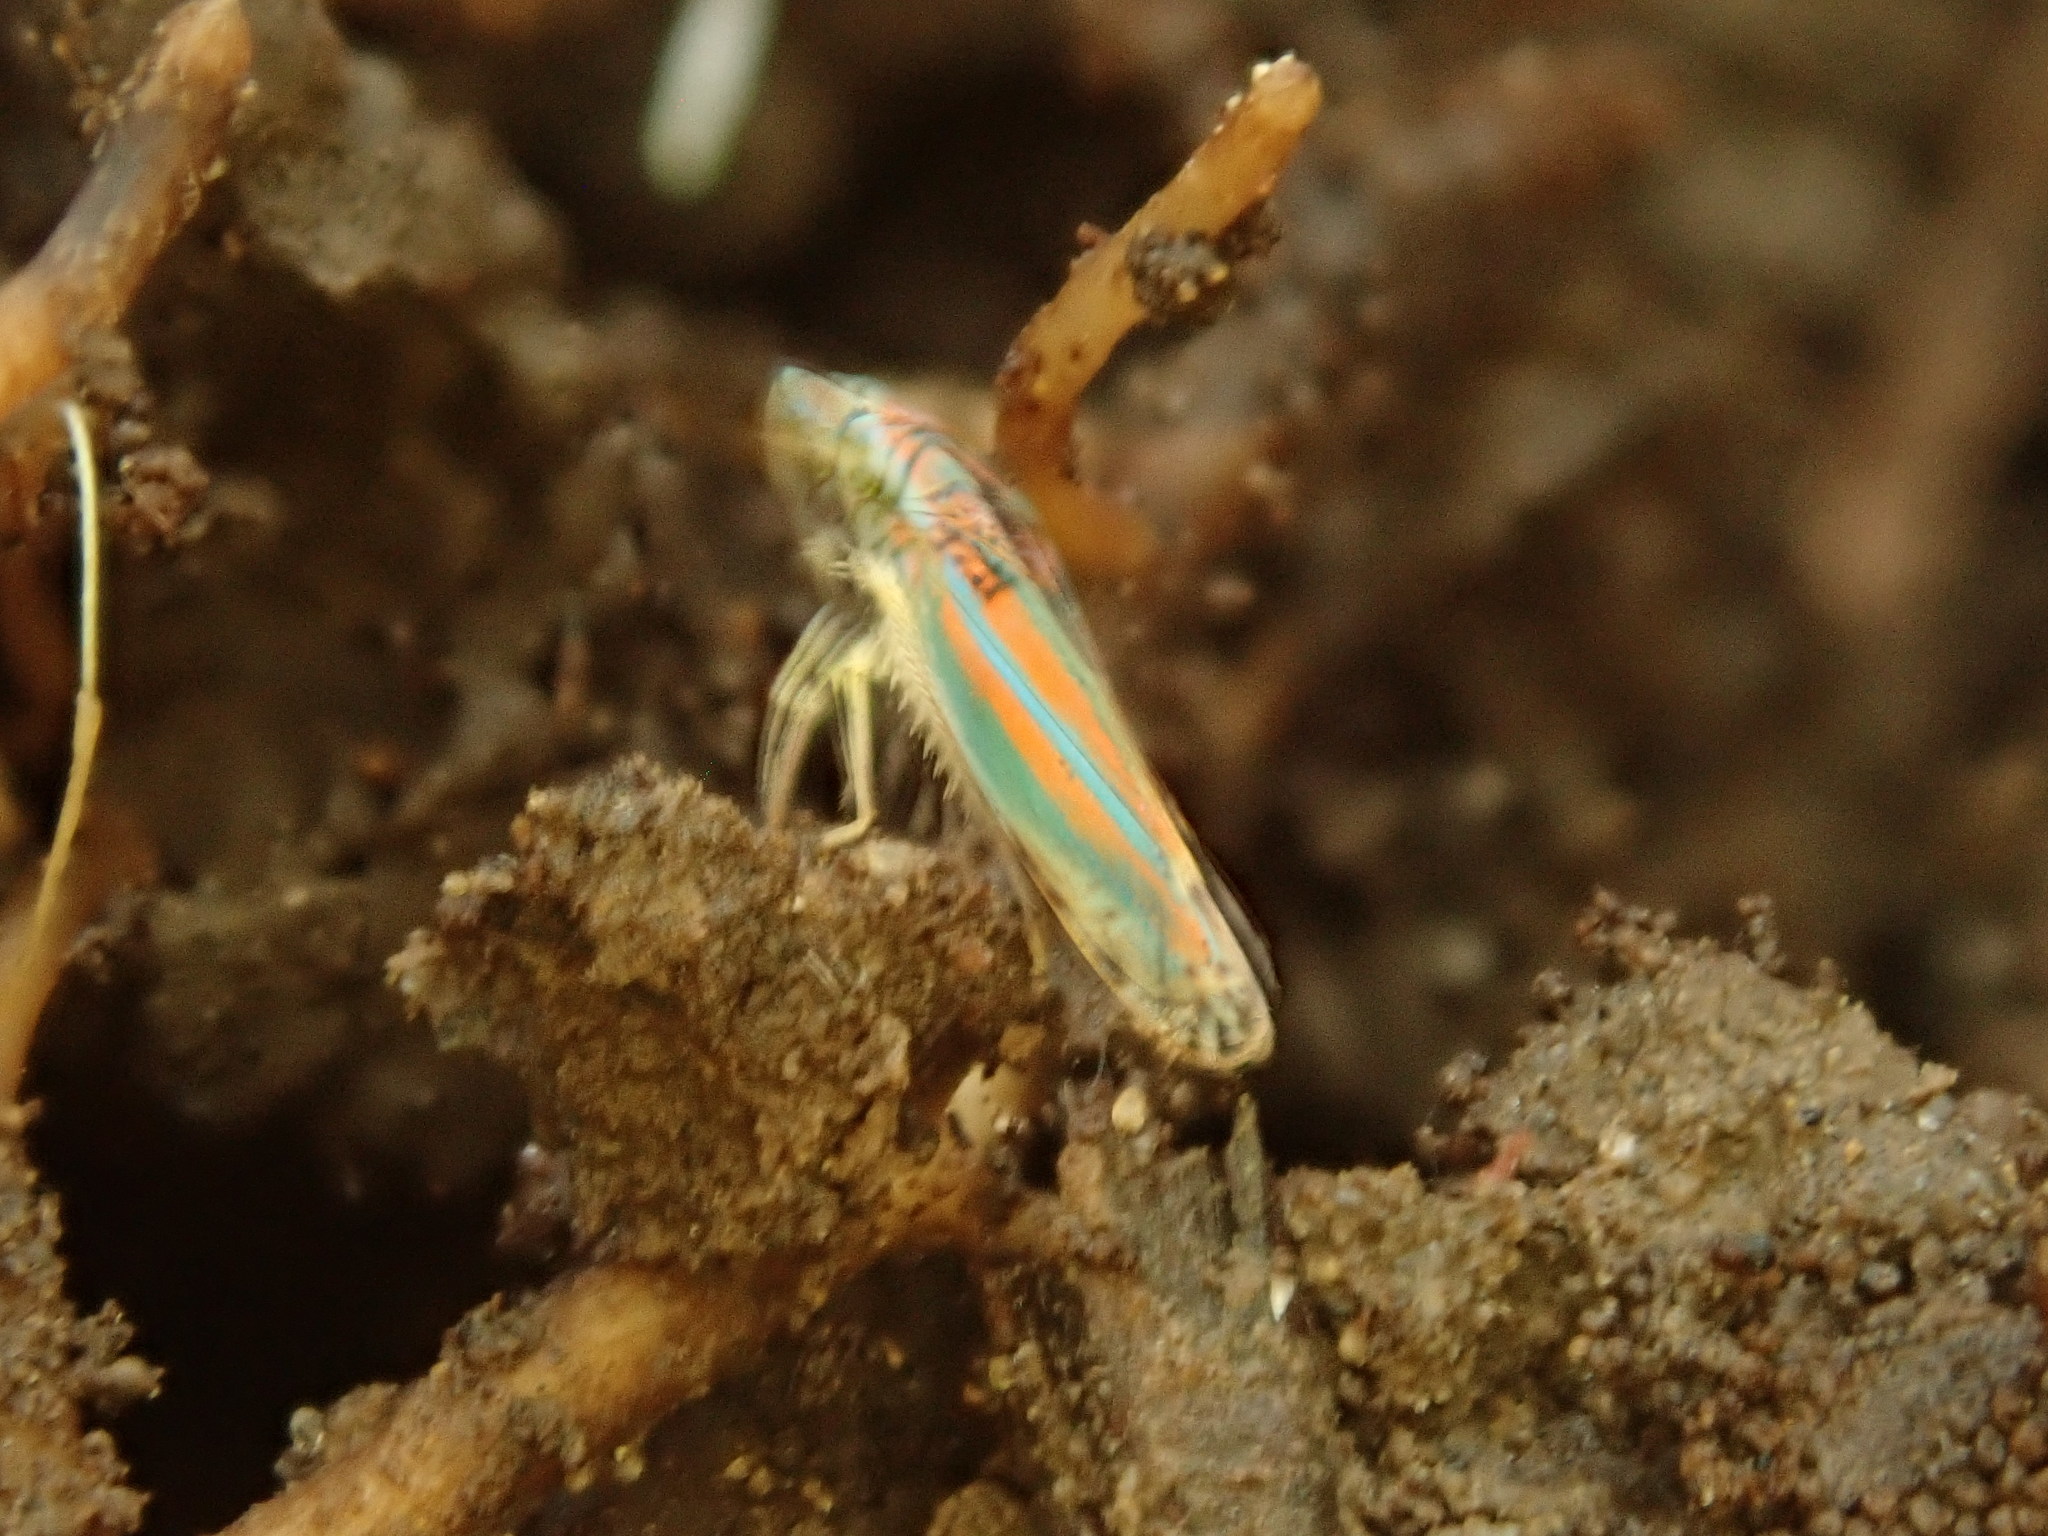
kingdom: Animalia
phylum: Arthropoda
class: Insecta
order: Hemiptera
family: Cicadellidae
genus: Graphocephala
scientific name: Graphocephala versuta
